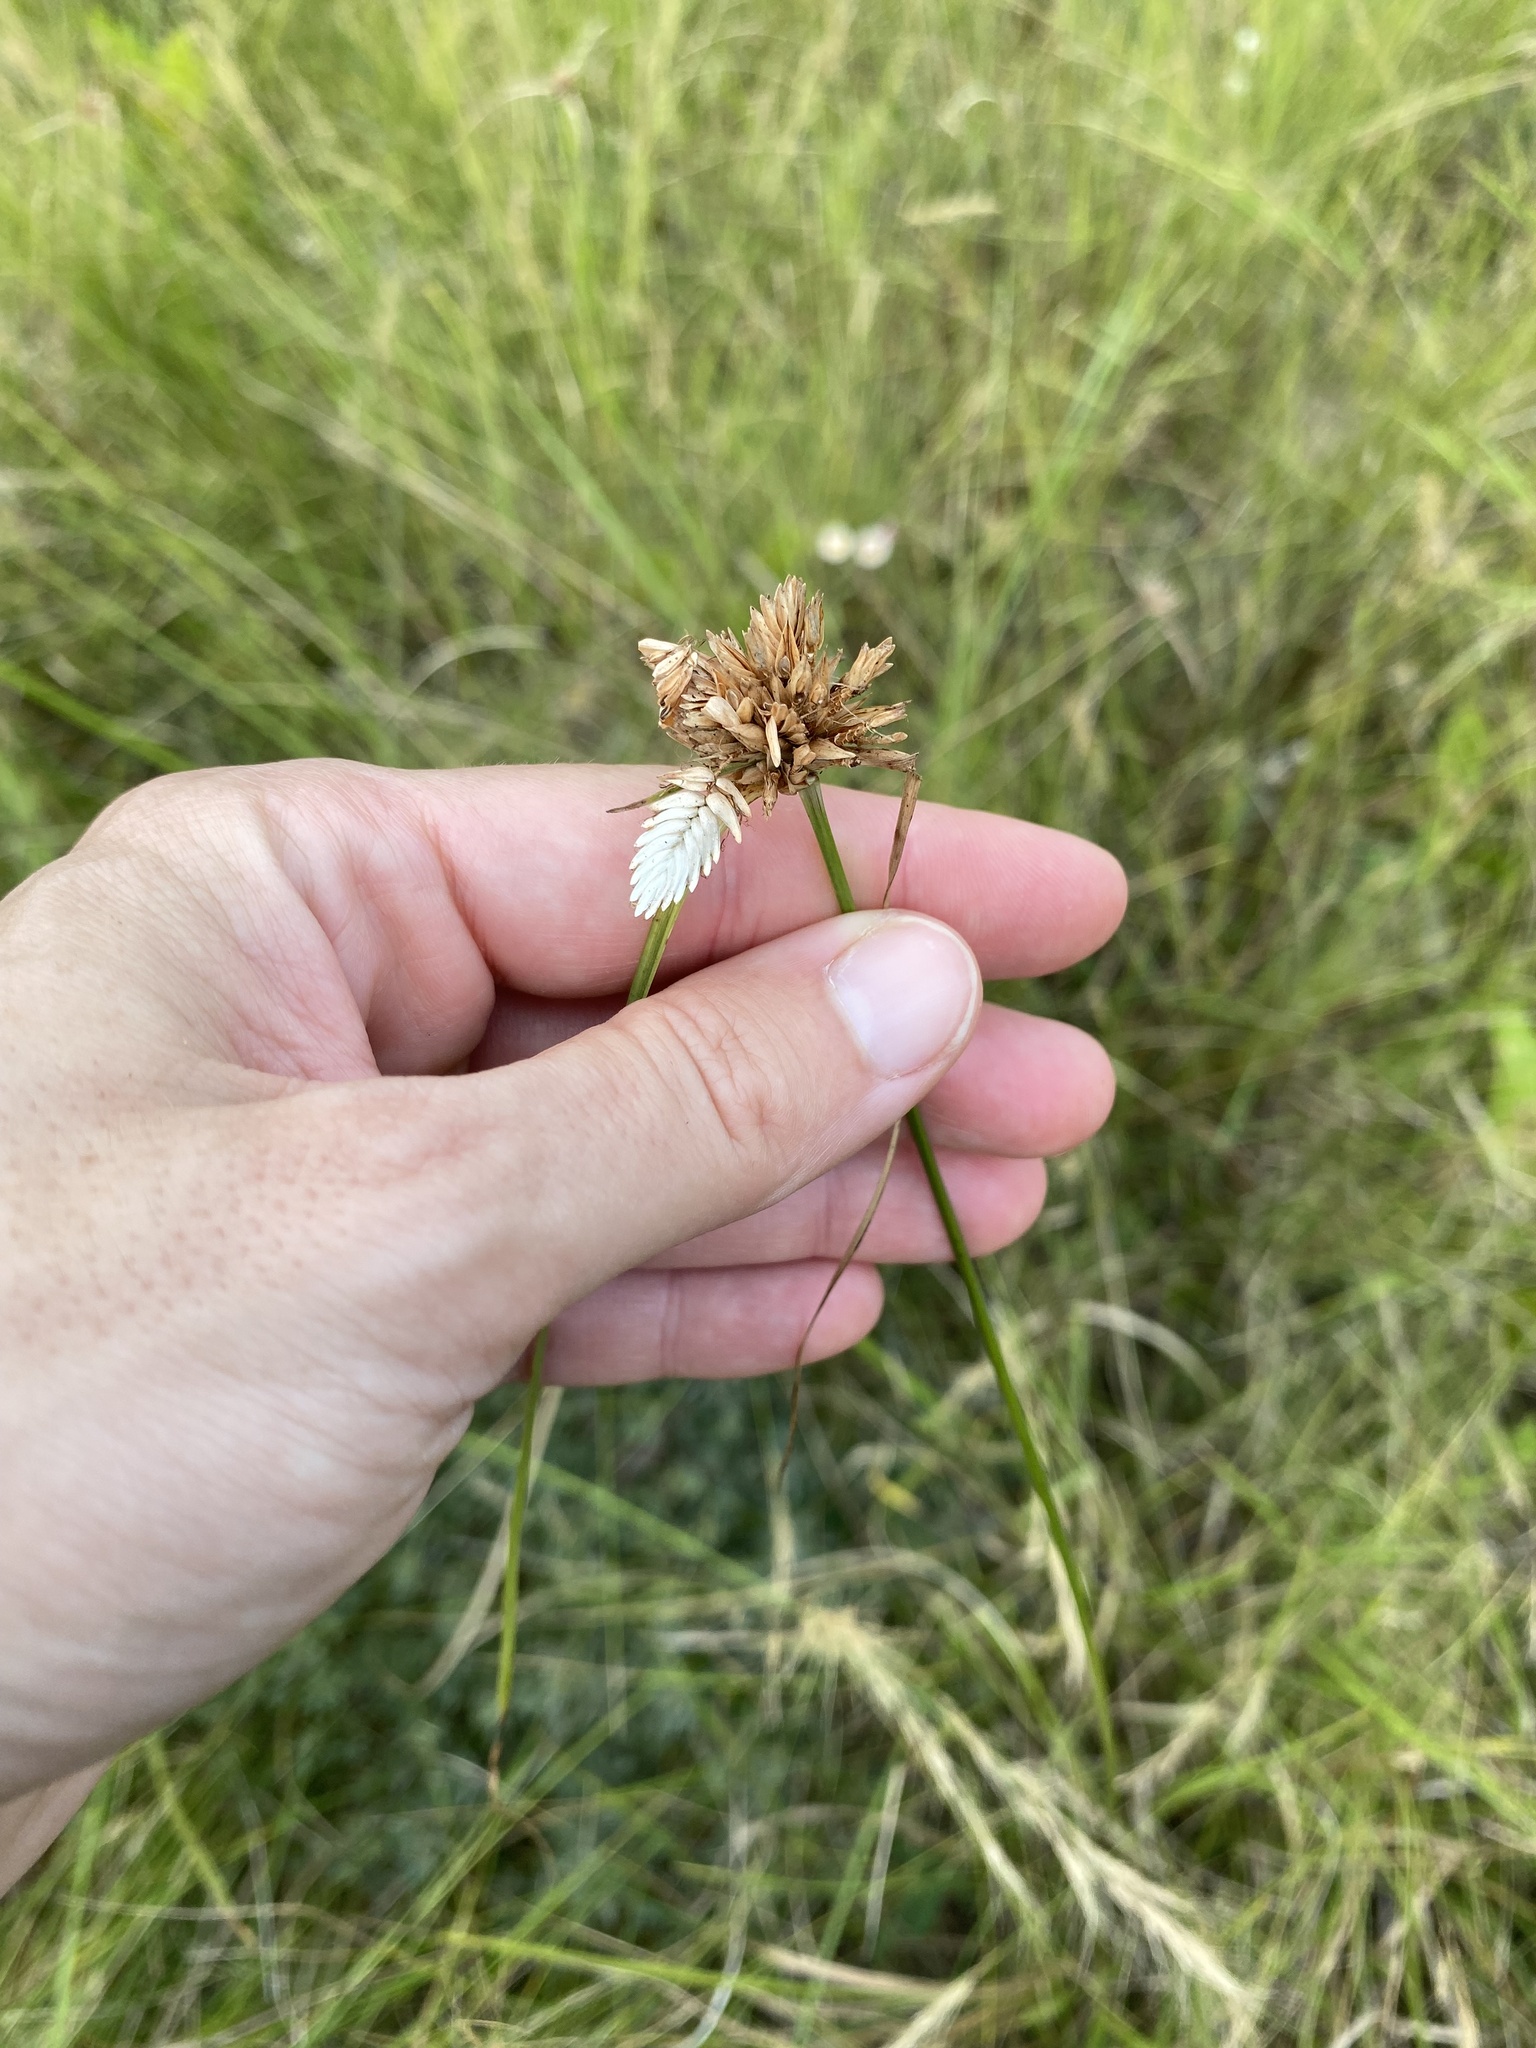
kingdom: Plantae
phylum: Tracheophyta
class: Liliopsida
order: Poales
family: Cyperaceae
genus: Cyperus
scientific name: Cyperus niveus
